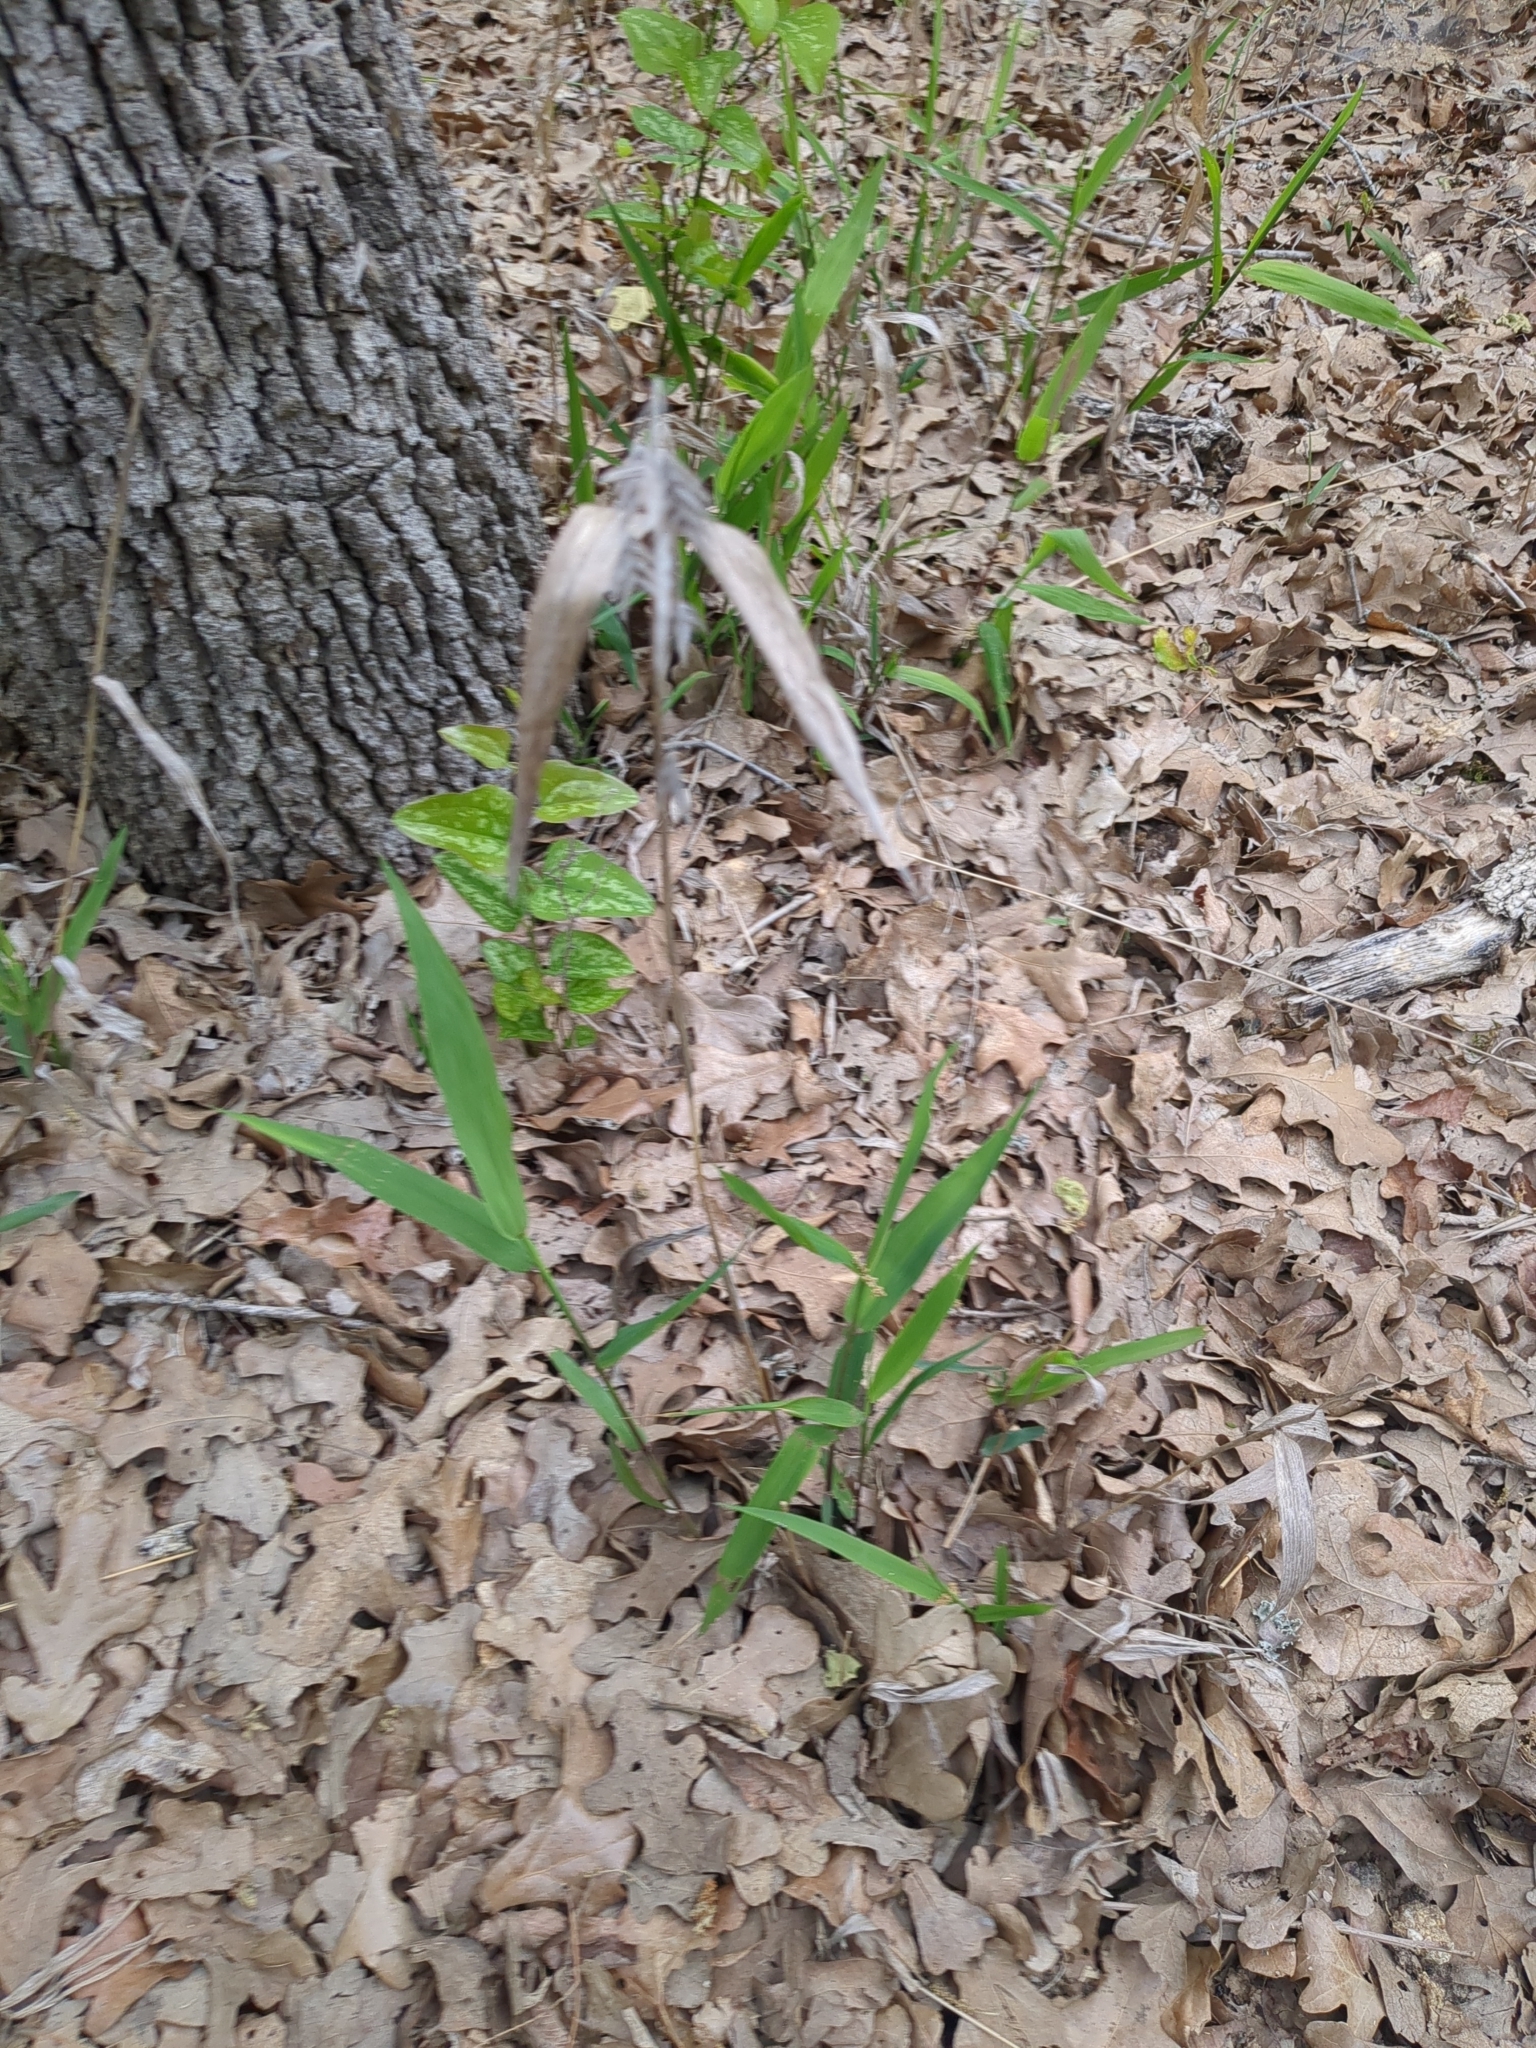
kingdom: Plantae
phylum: Tracheophyta
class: Liliopsida
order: Poales
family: Poaceae
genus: Chasmanthium
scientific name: Chasmanthium latifolium
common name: Broad-leaved chasmanthium
